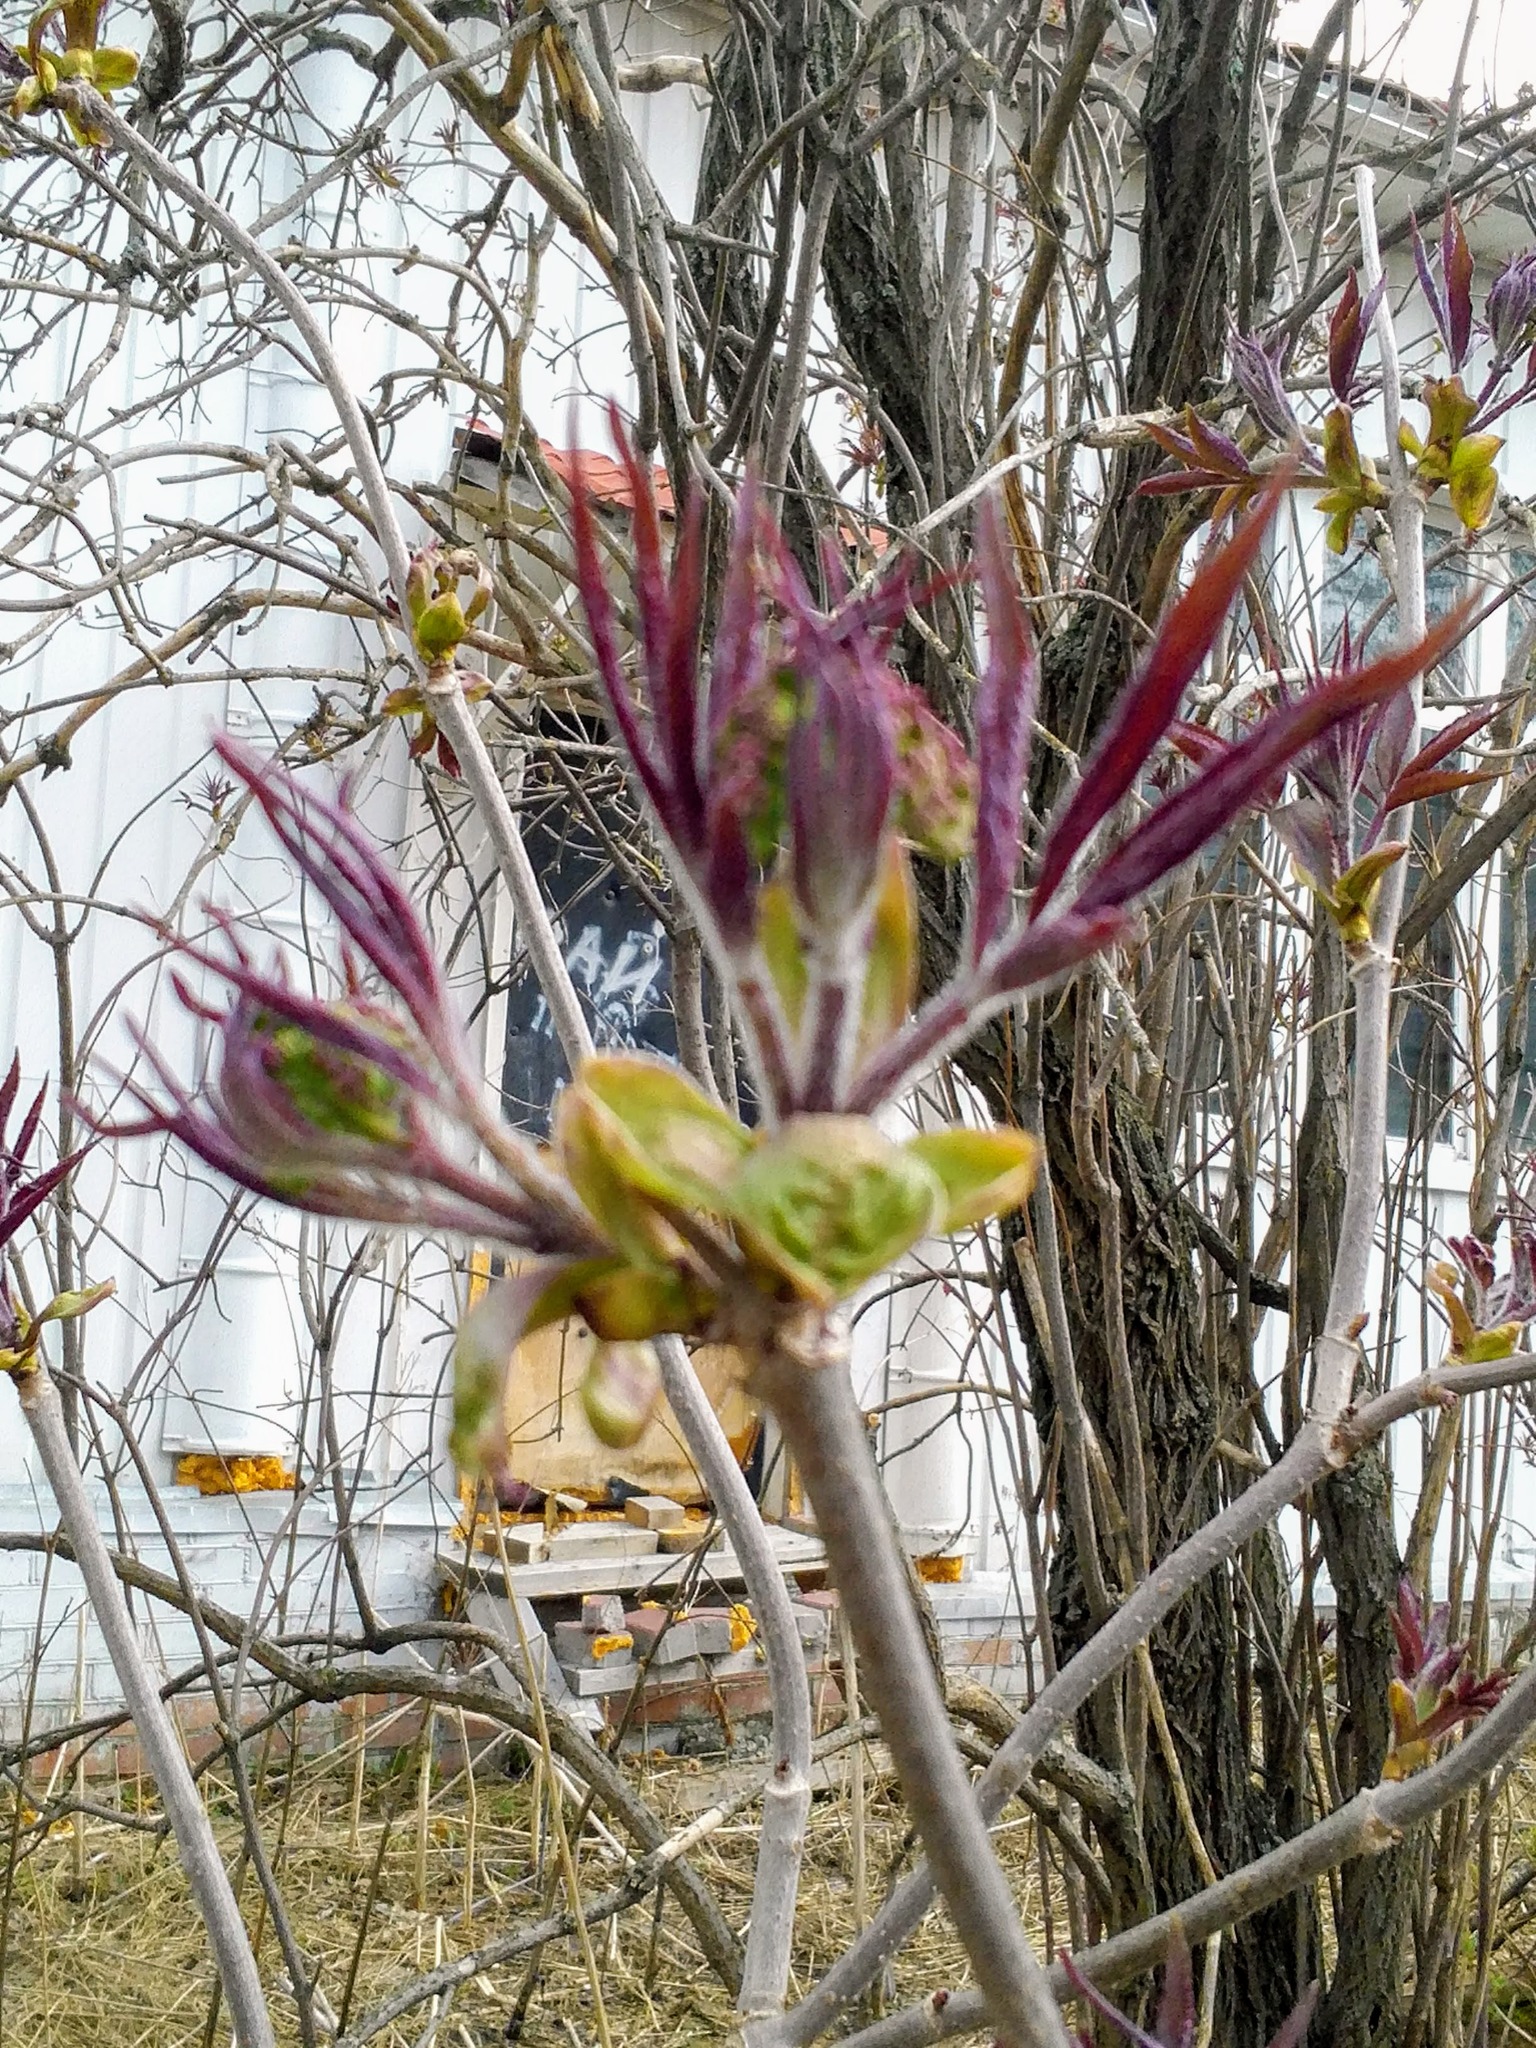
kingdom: Plantae
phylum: Tracheophyta
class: Magnoliopsida
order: Dipsacales
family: Viburnaceae
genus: Sambucus
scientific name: Sambucus sibirica
